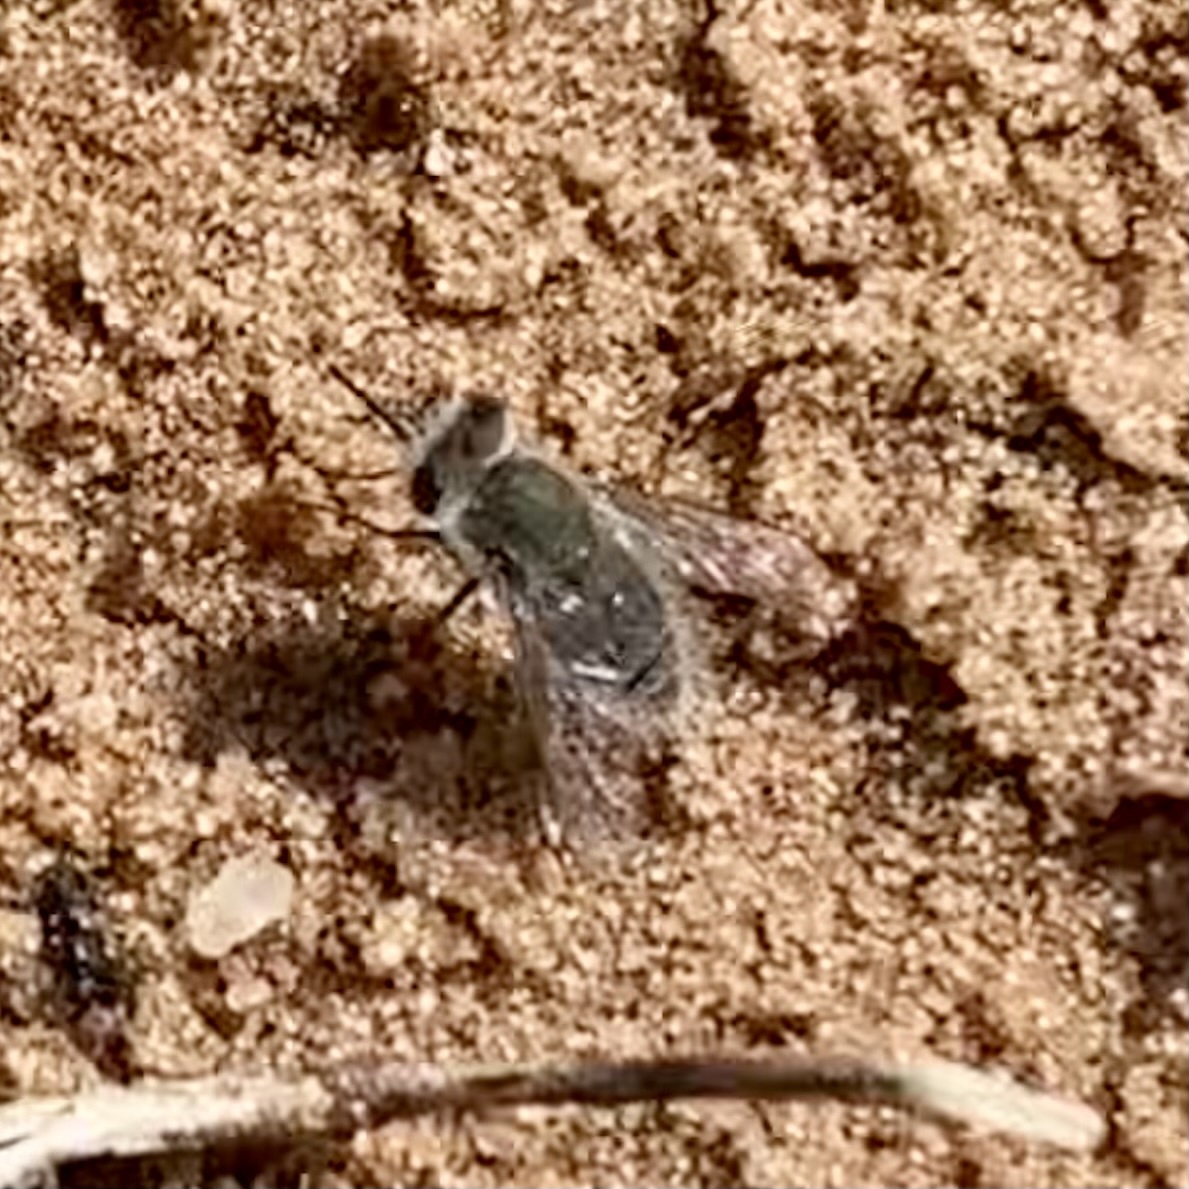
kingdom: Animalia
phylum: Arthropoda
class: Insecta
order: Diptera
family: Bombyliidae
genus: Pantarbes
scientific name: Pantarbes
